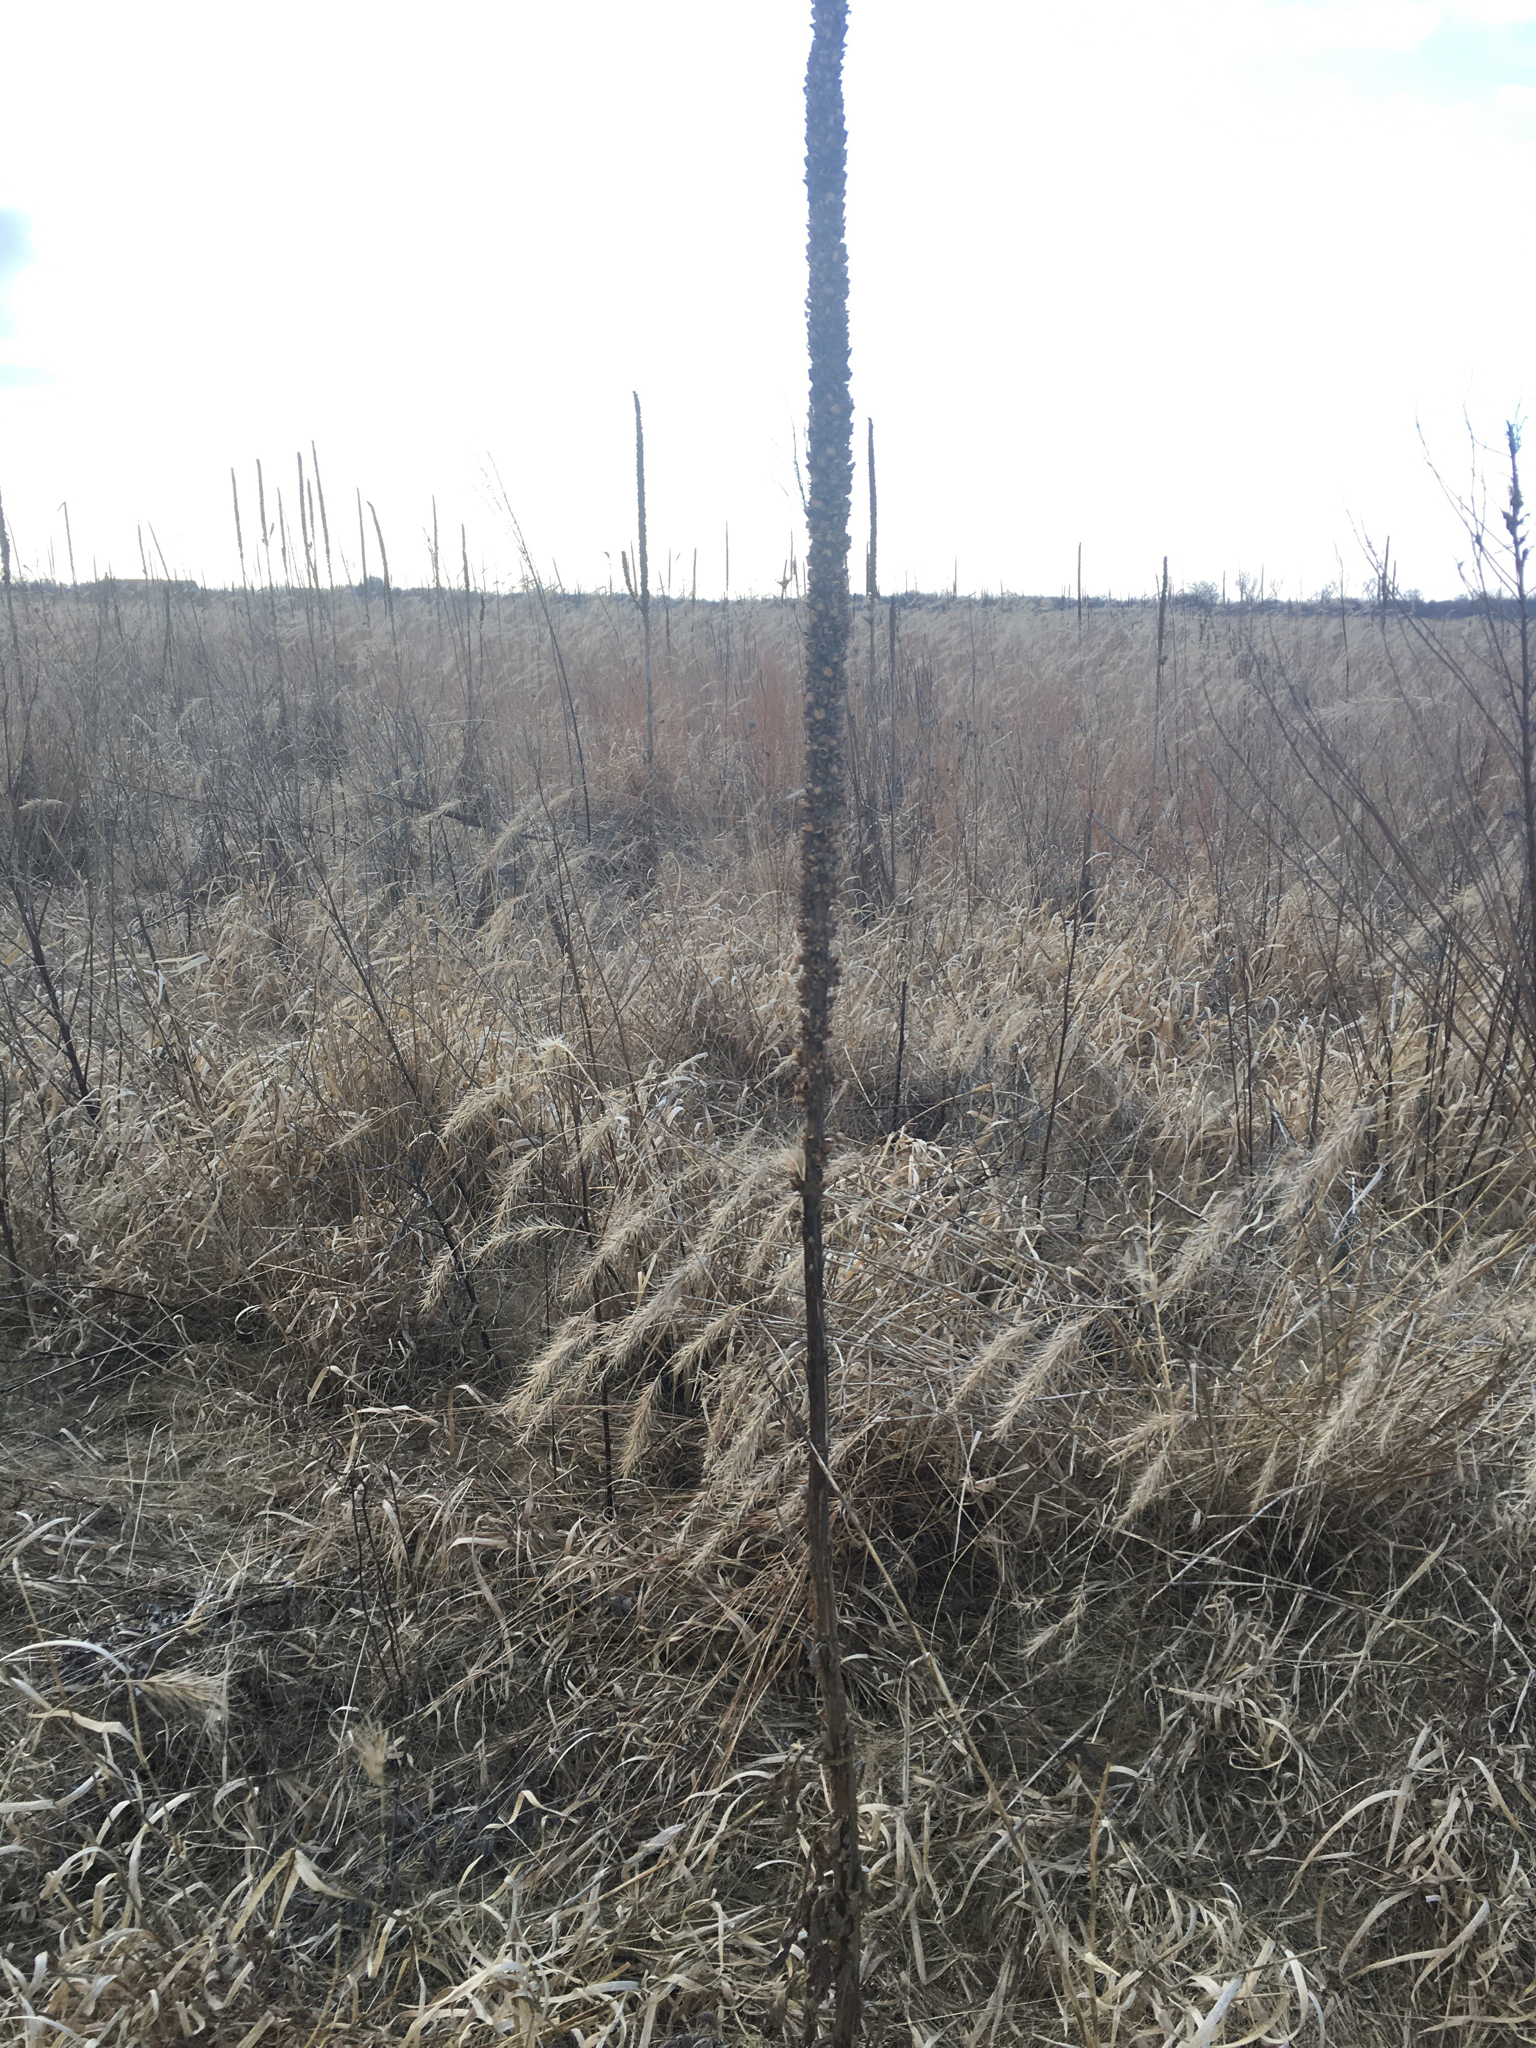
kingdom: Plantae
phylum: Tracheophyta
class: Magnoliopsida
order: Lamiales
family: Scrophulariaceae
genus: Verbascum
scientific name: Verbascum thapsus
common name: Common mullein
